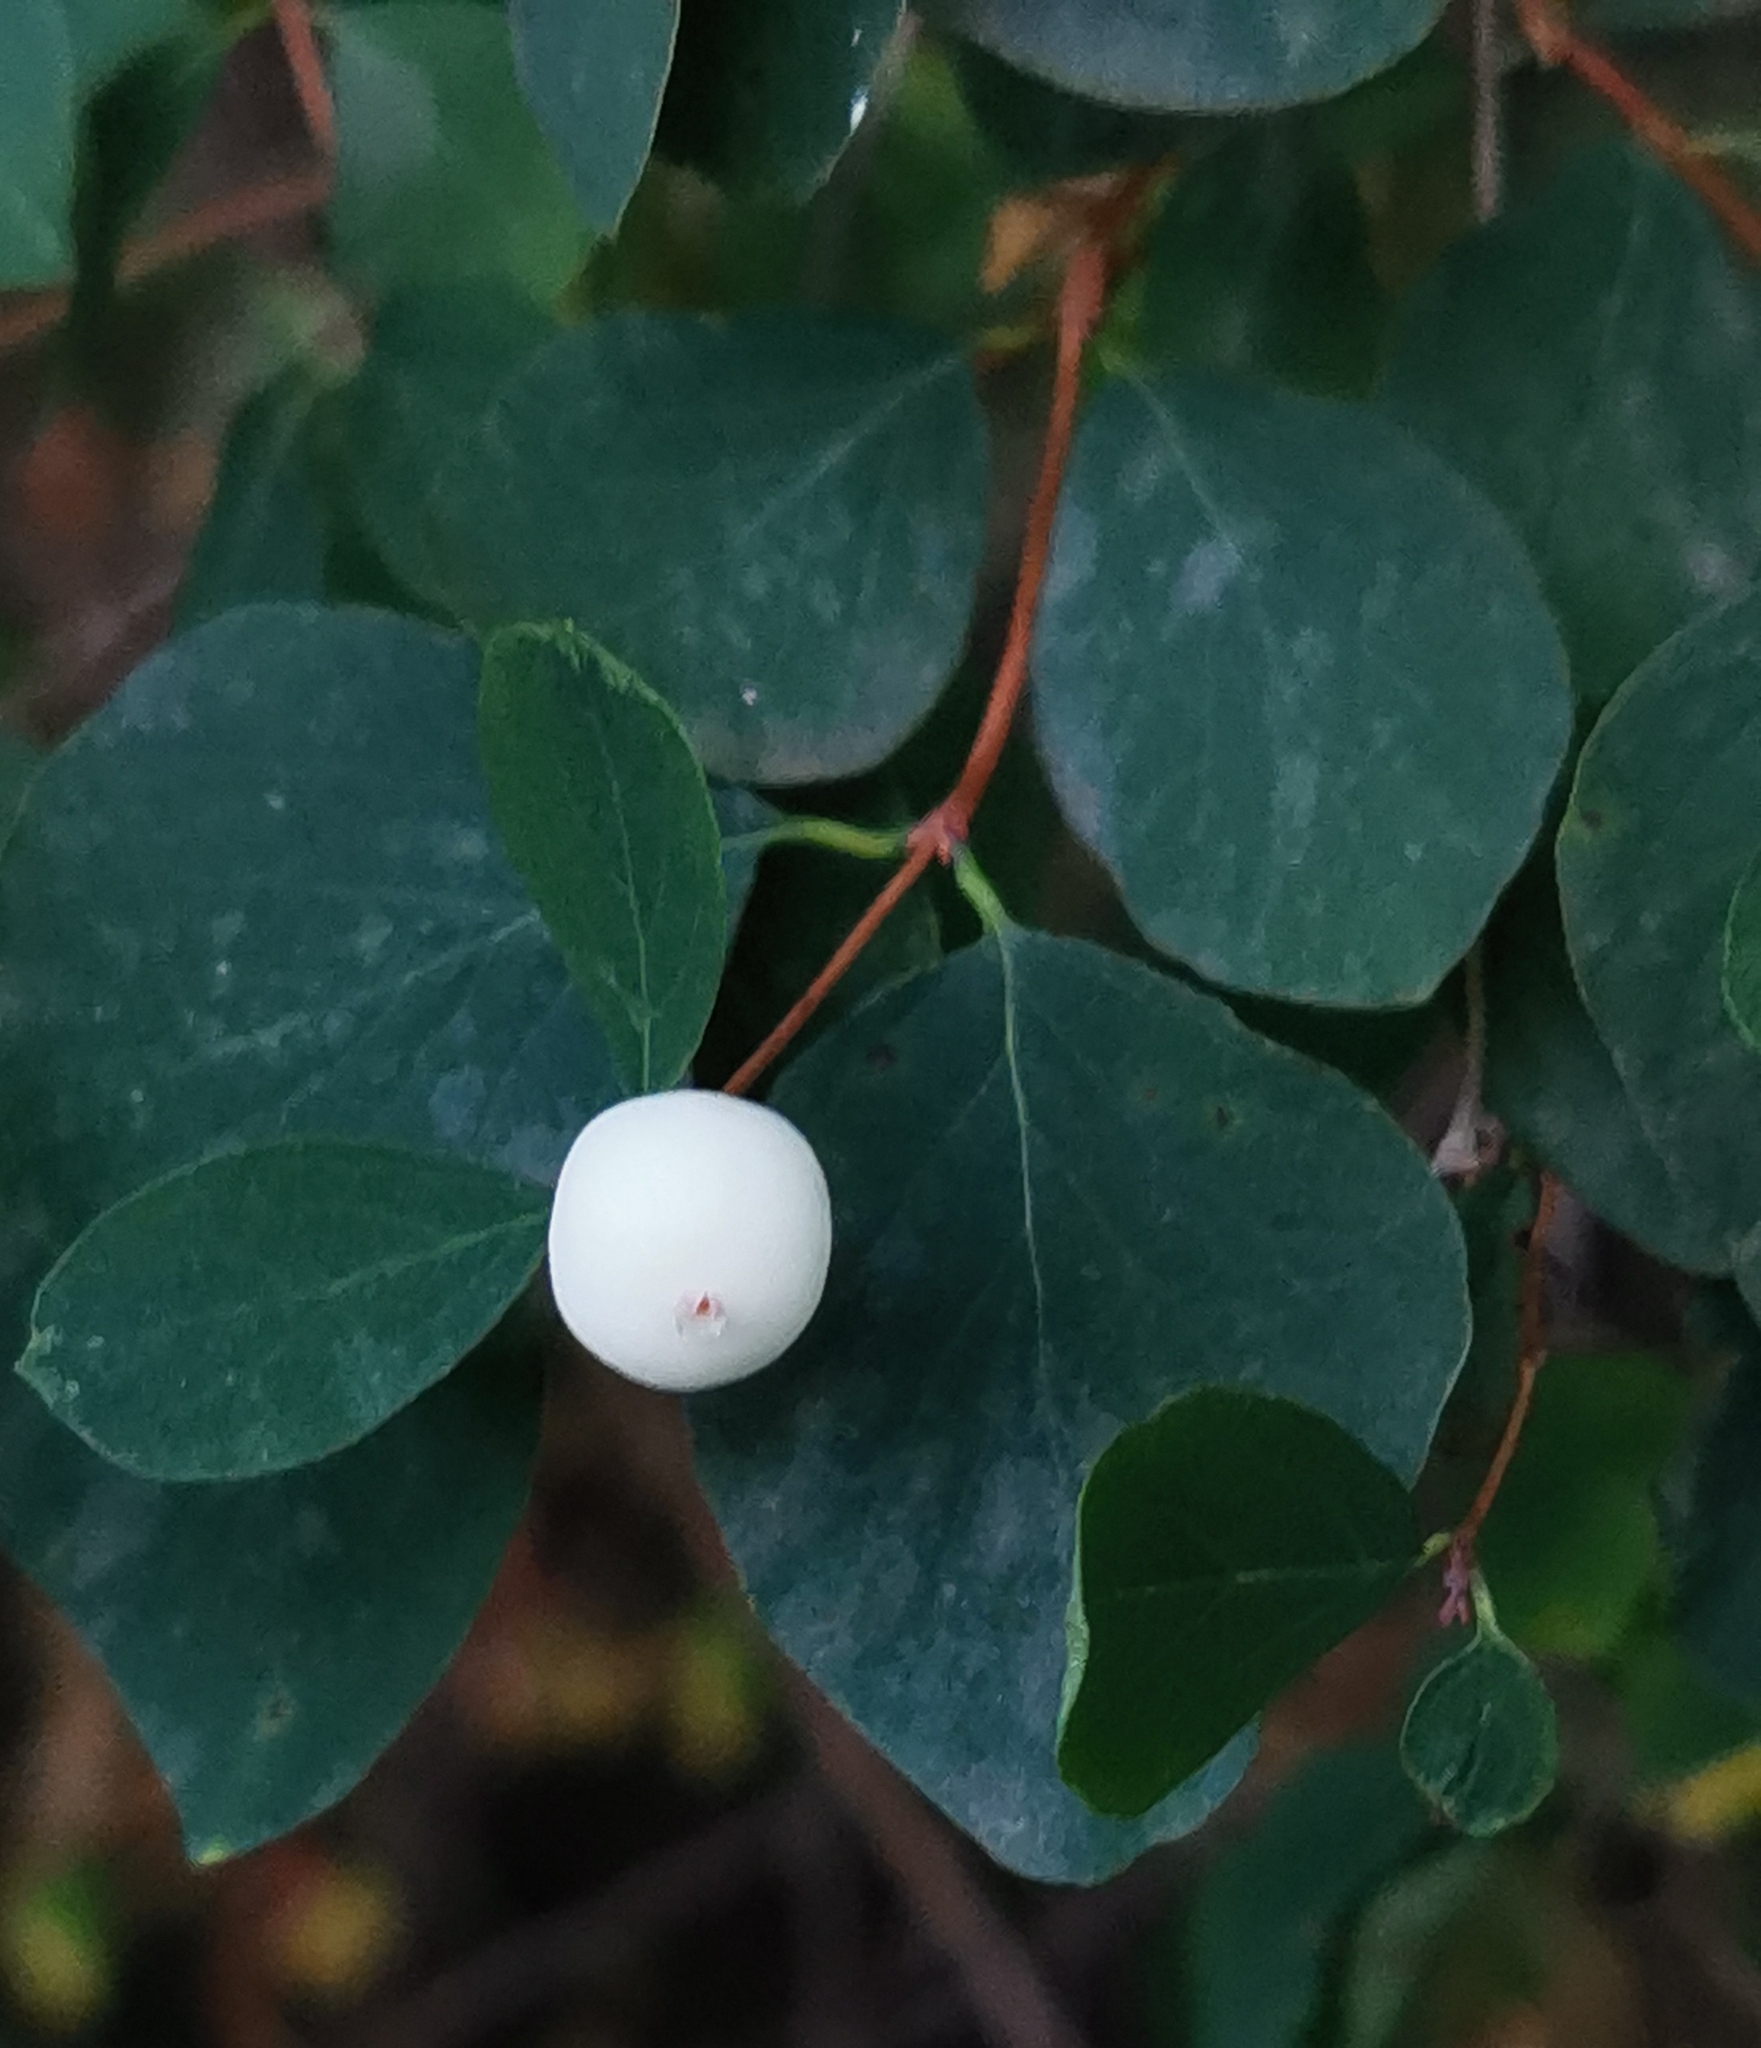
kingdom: Plantae
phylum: Tracheophyta
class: Magnoliopsida
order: Dipsacales
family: Caprifoliaceae
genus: Symphoricarpos
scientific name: Symphoricarpos albus
